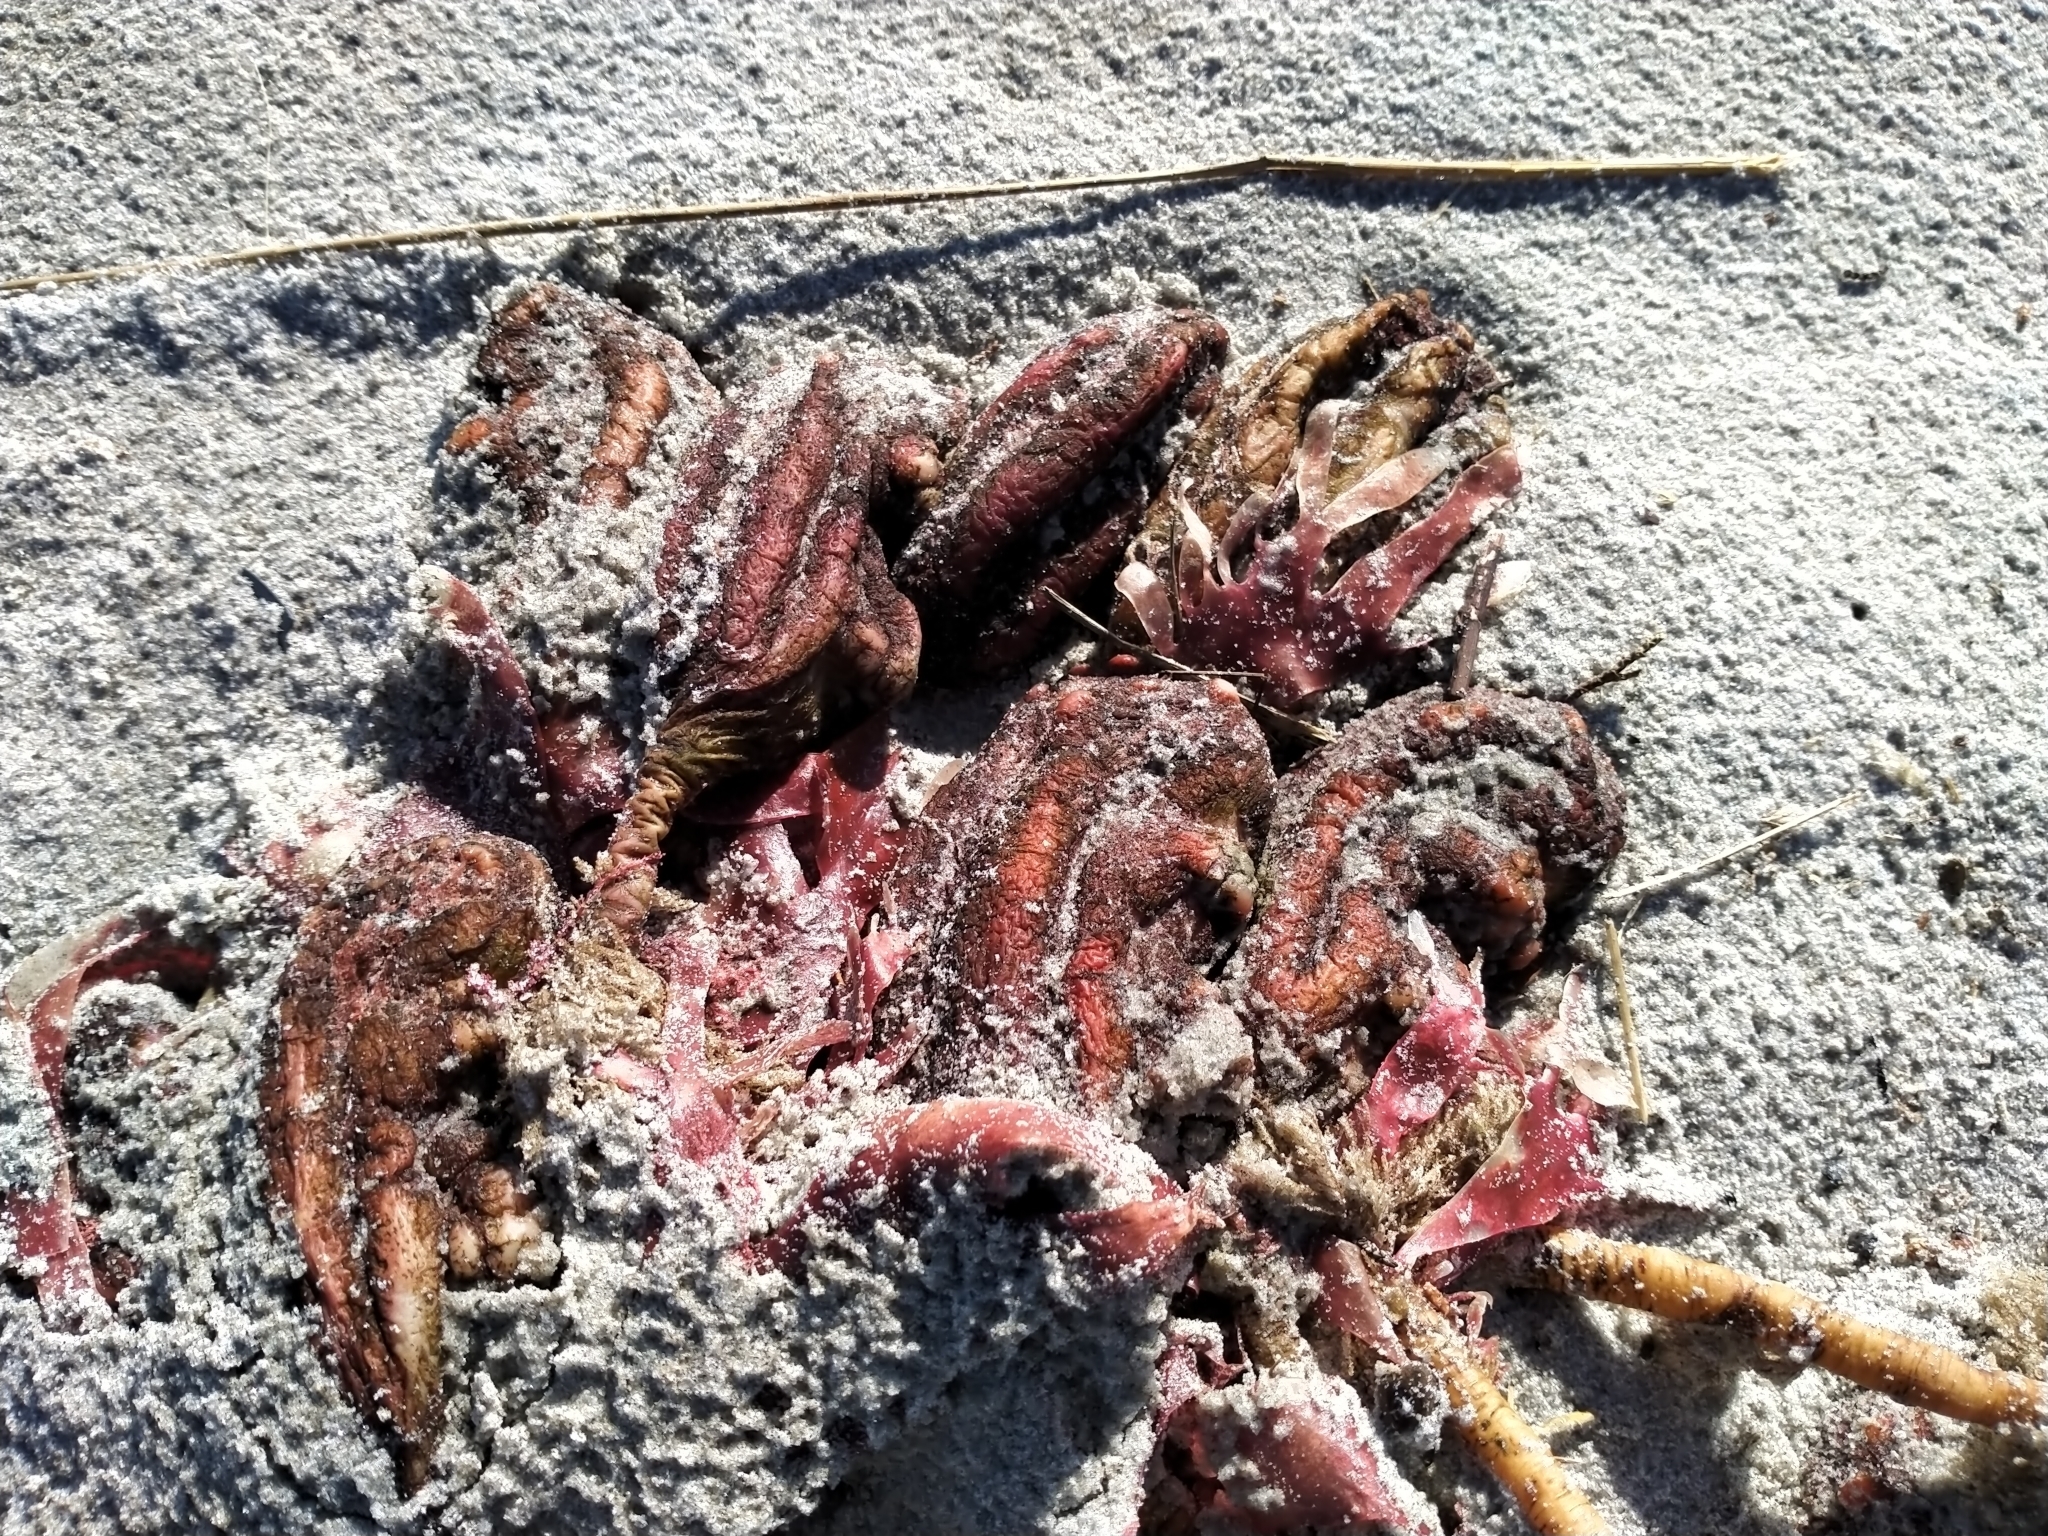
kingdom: Animalia
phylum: Chordata
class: Ascidiacea
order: Stolidobranchia
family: Pyuridae
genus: Pyura
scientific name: Pyura pachydermatina
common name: Sea tulip
